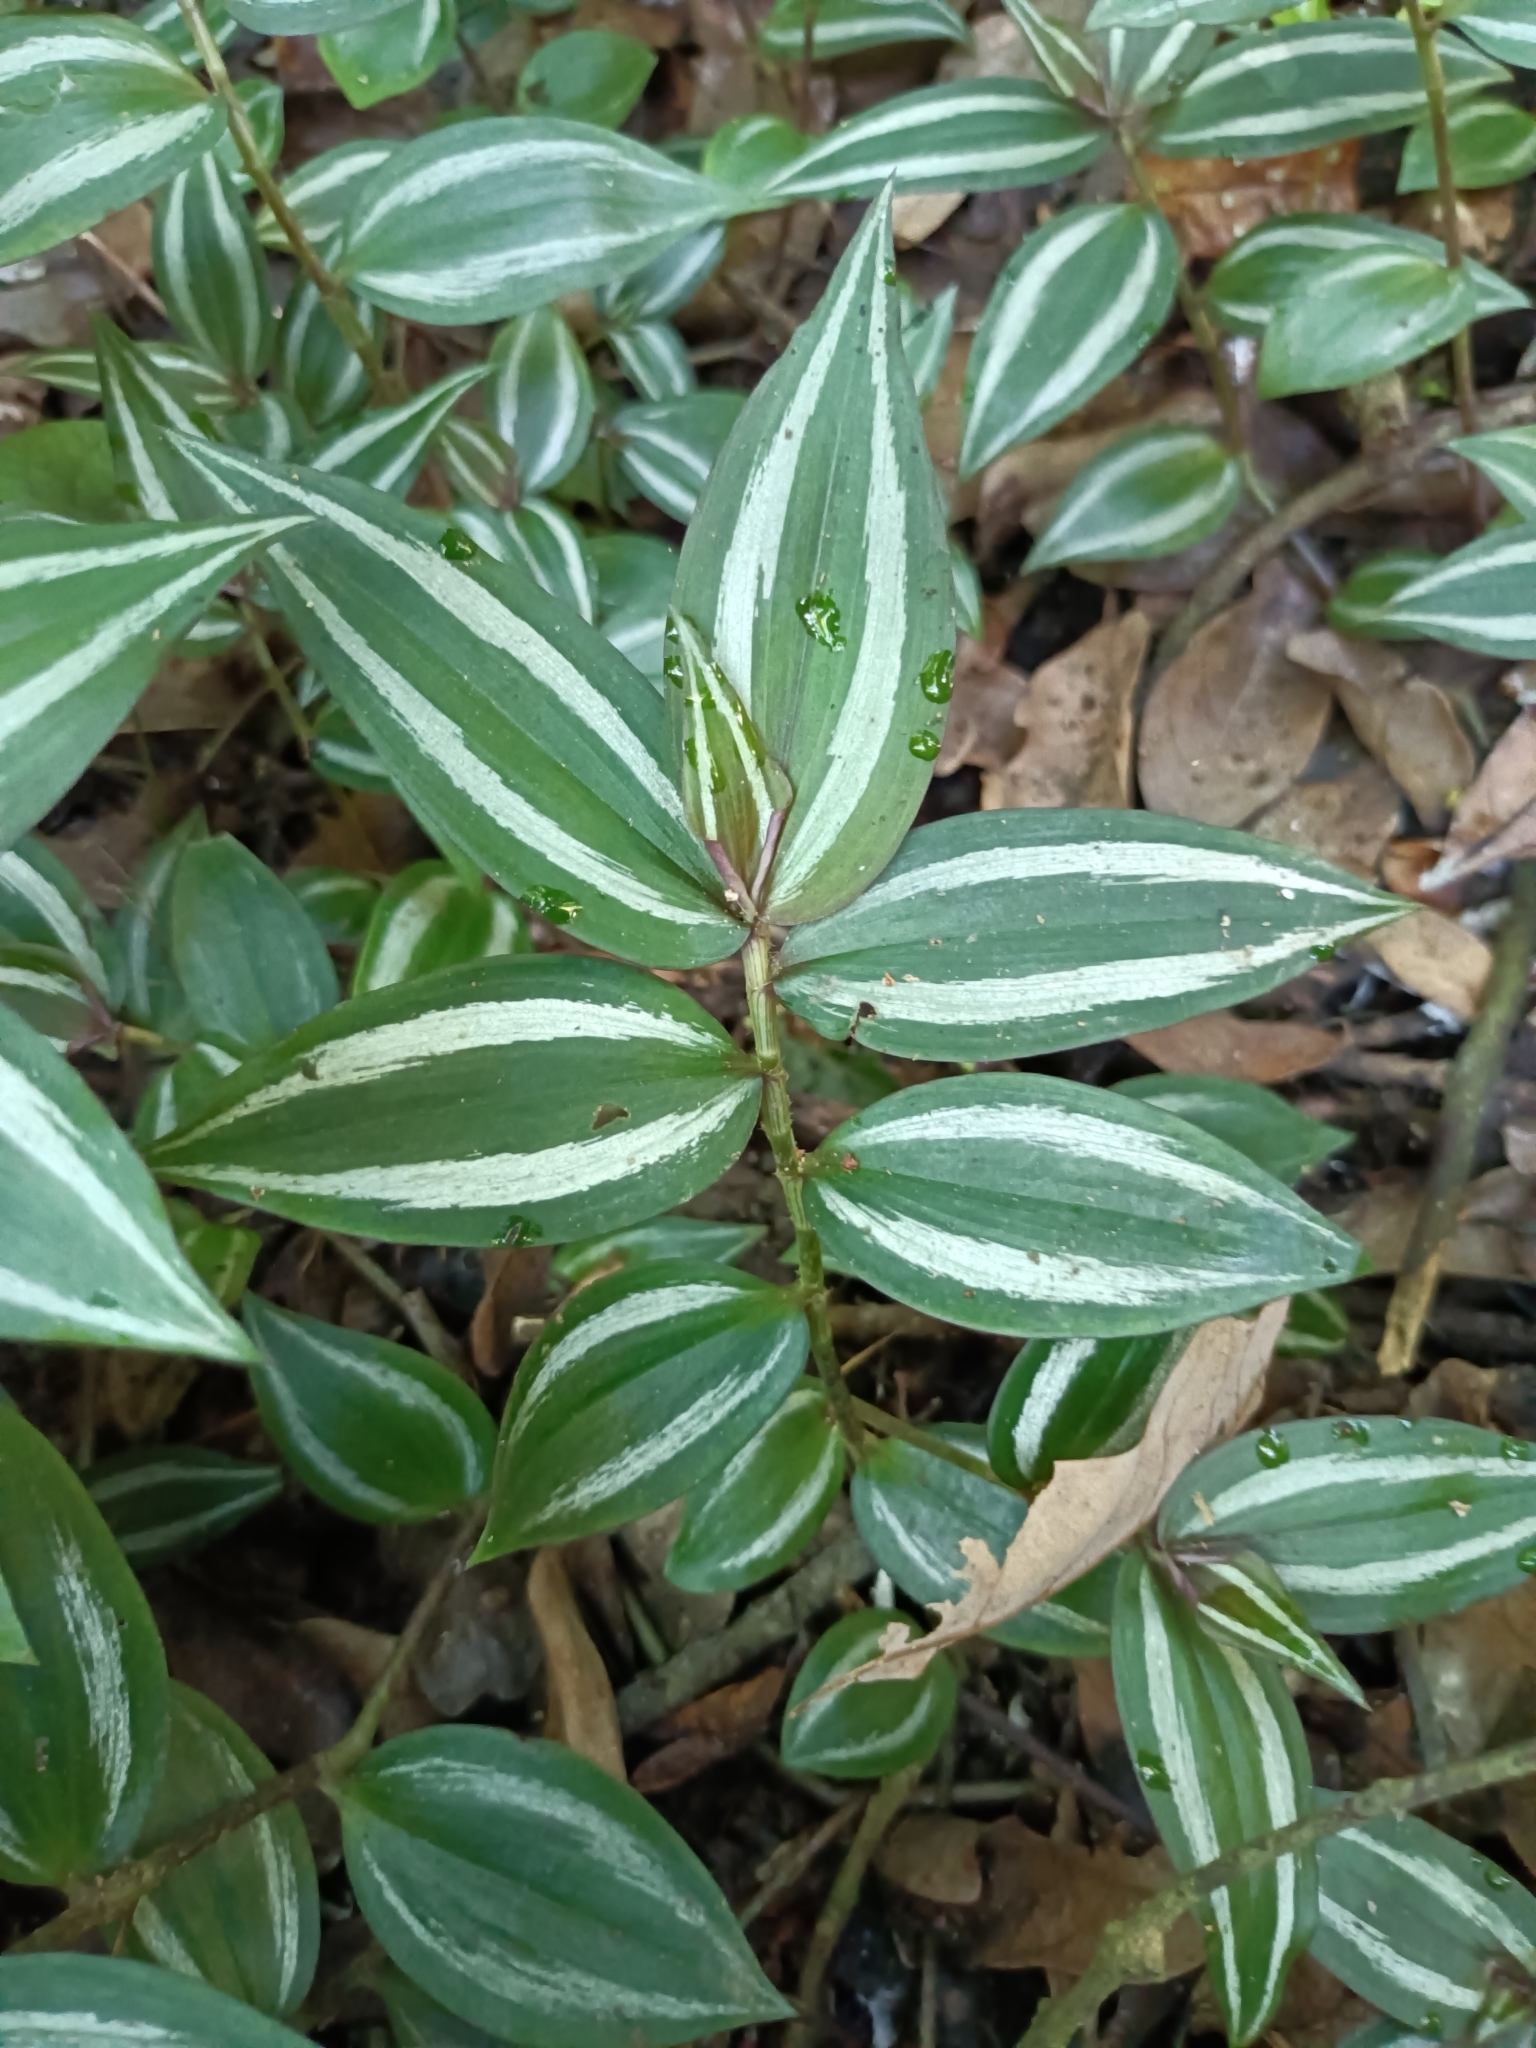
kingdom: Plantae
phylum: Tracheophyta
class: Liliopsida
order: Commelinales
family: Commelinaceae
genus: Tradescantia
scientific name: Tradescantia zebrina
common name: Inchplant
